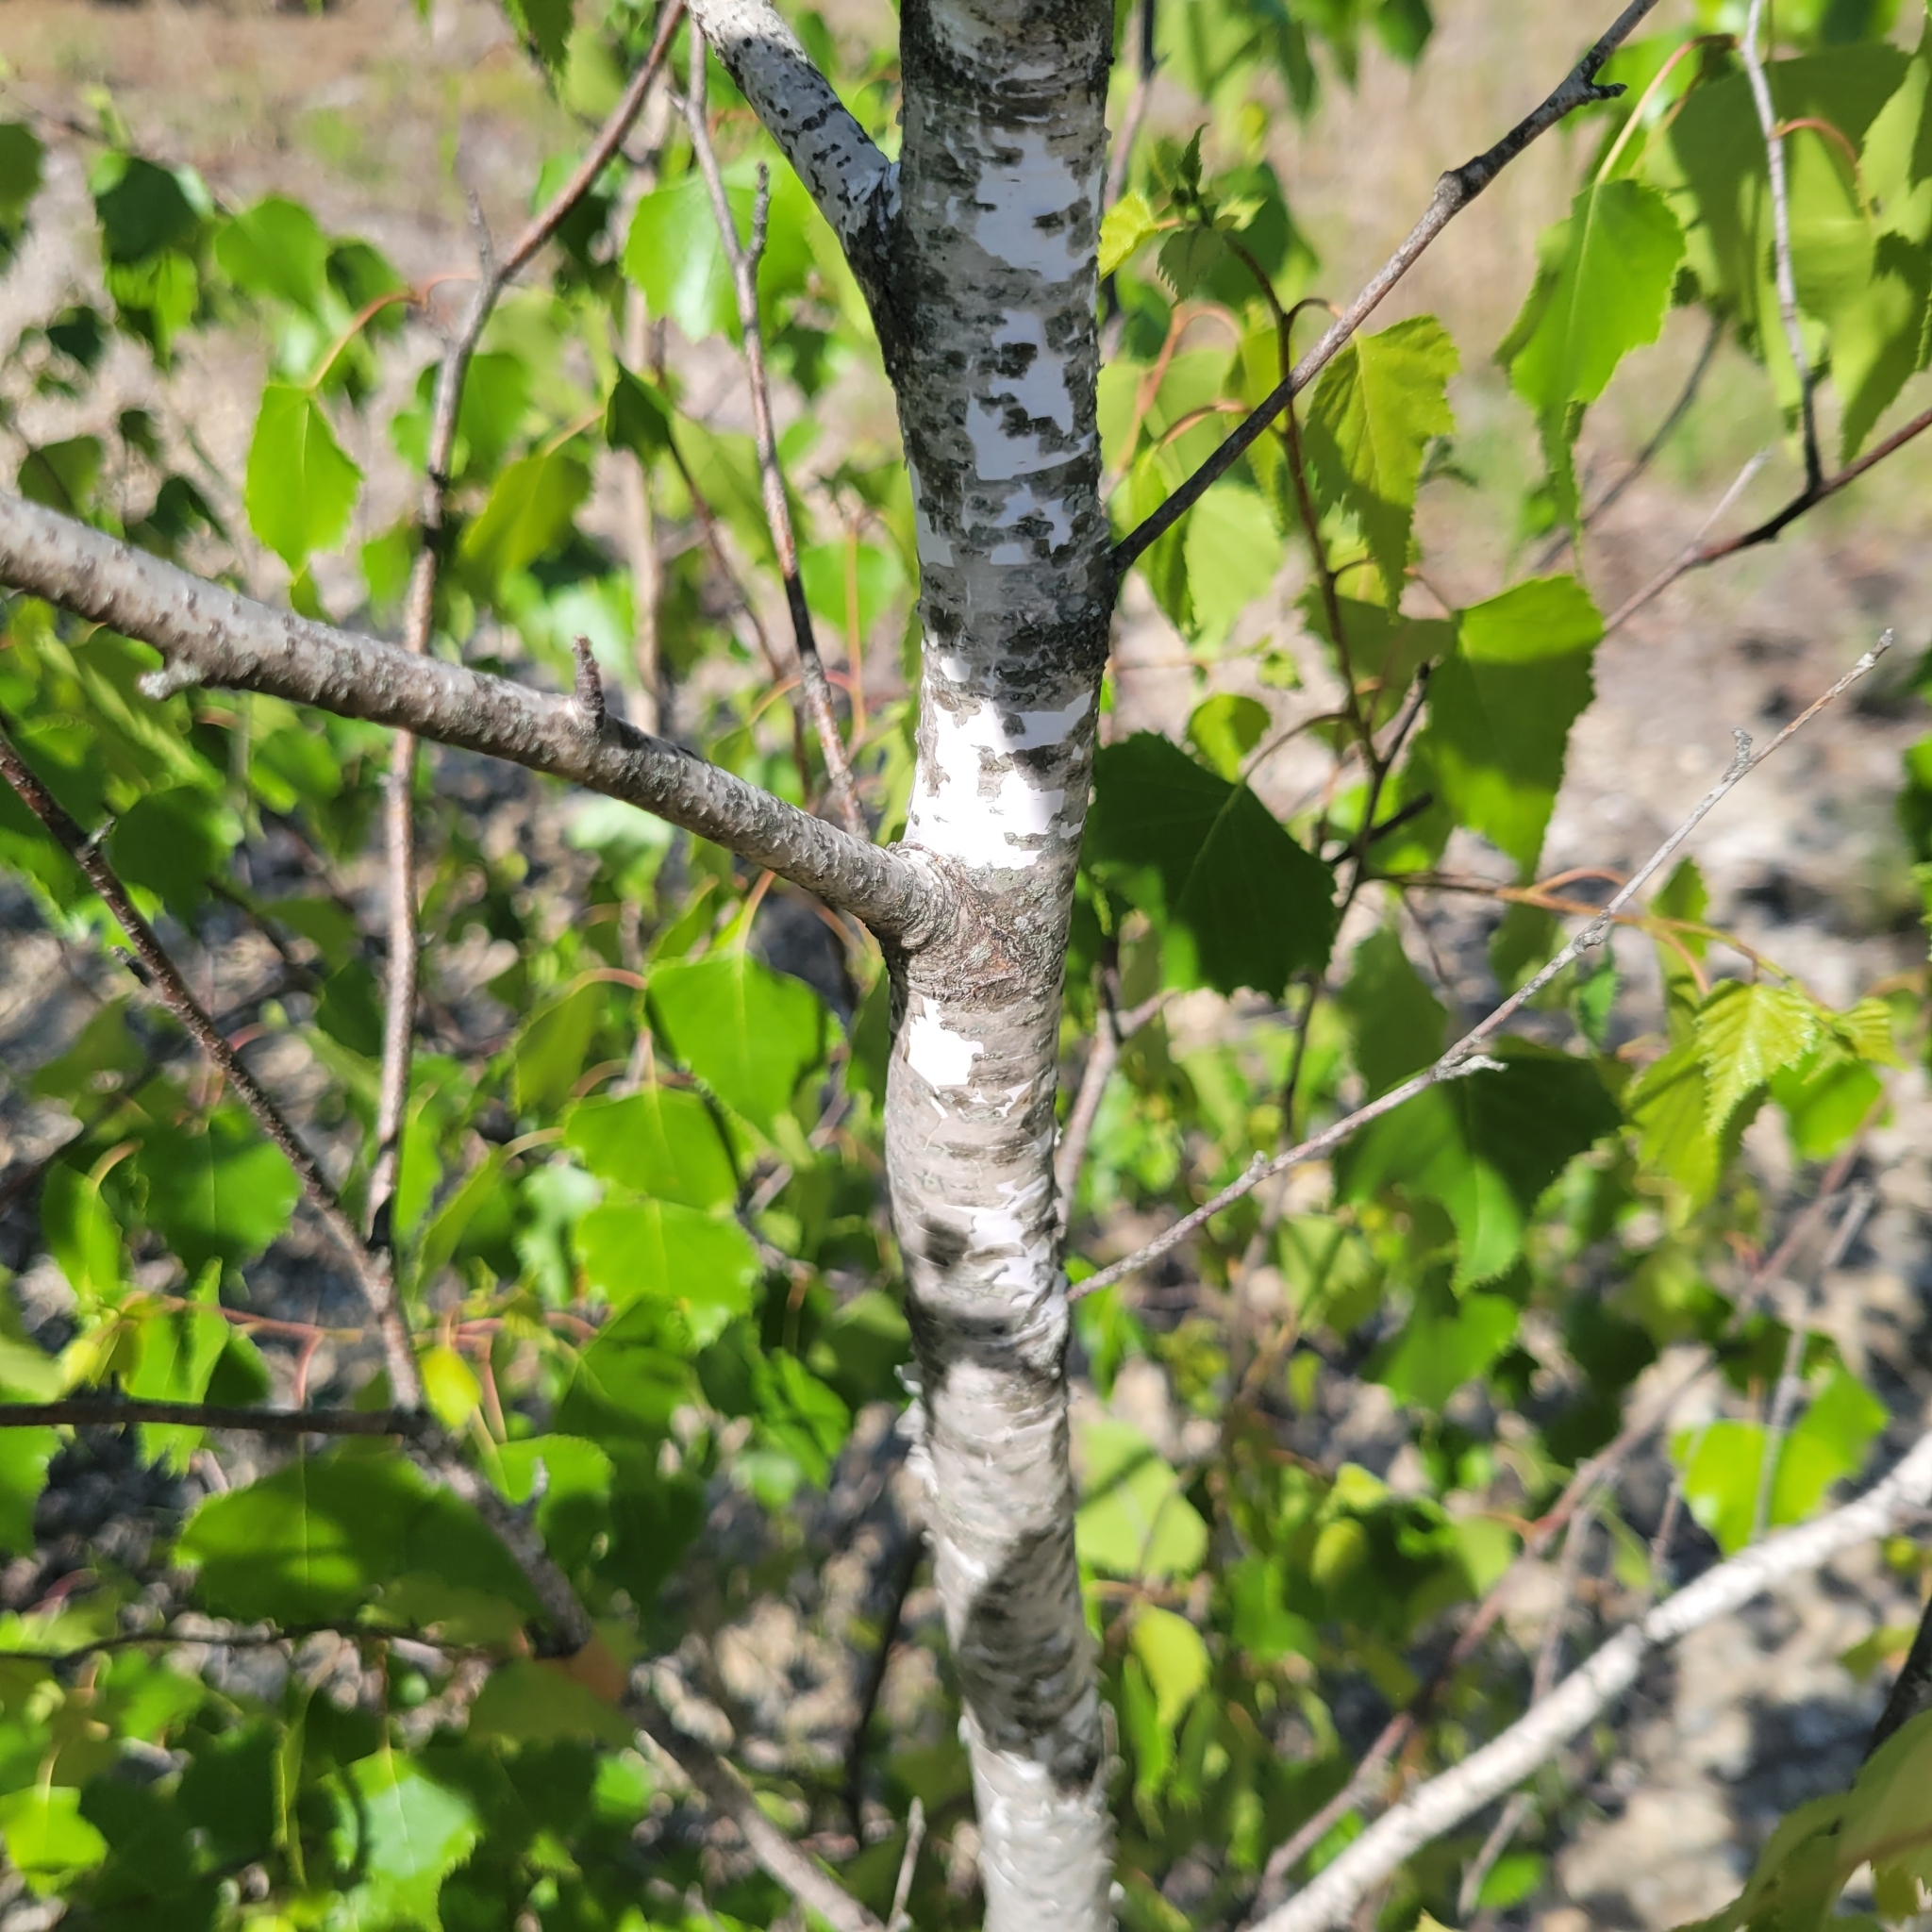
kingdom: Plantae
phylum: Tracheophyta
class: Magnoliopsida
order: Fagales
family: Betulaceae
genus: Betula
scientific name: Betula populifolia
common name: Fire birch
